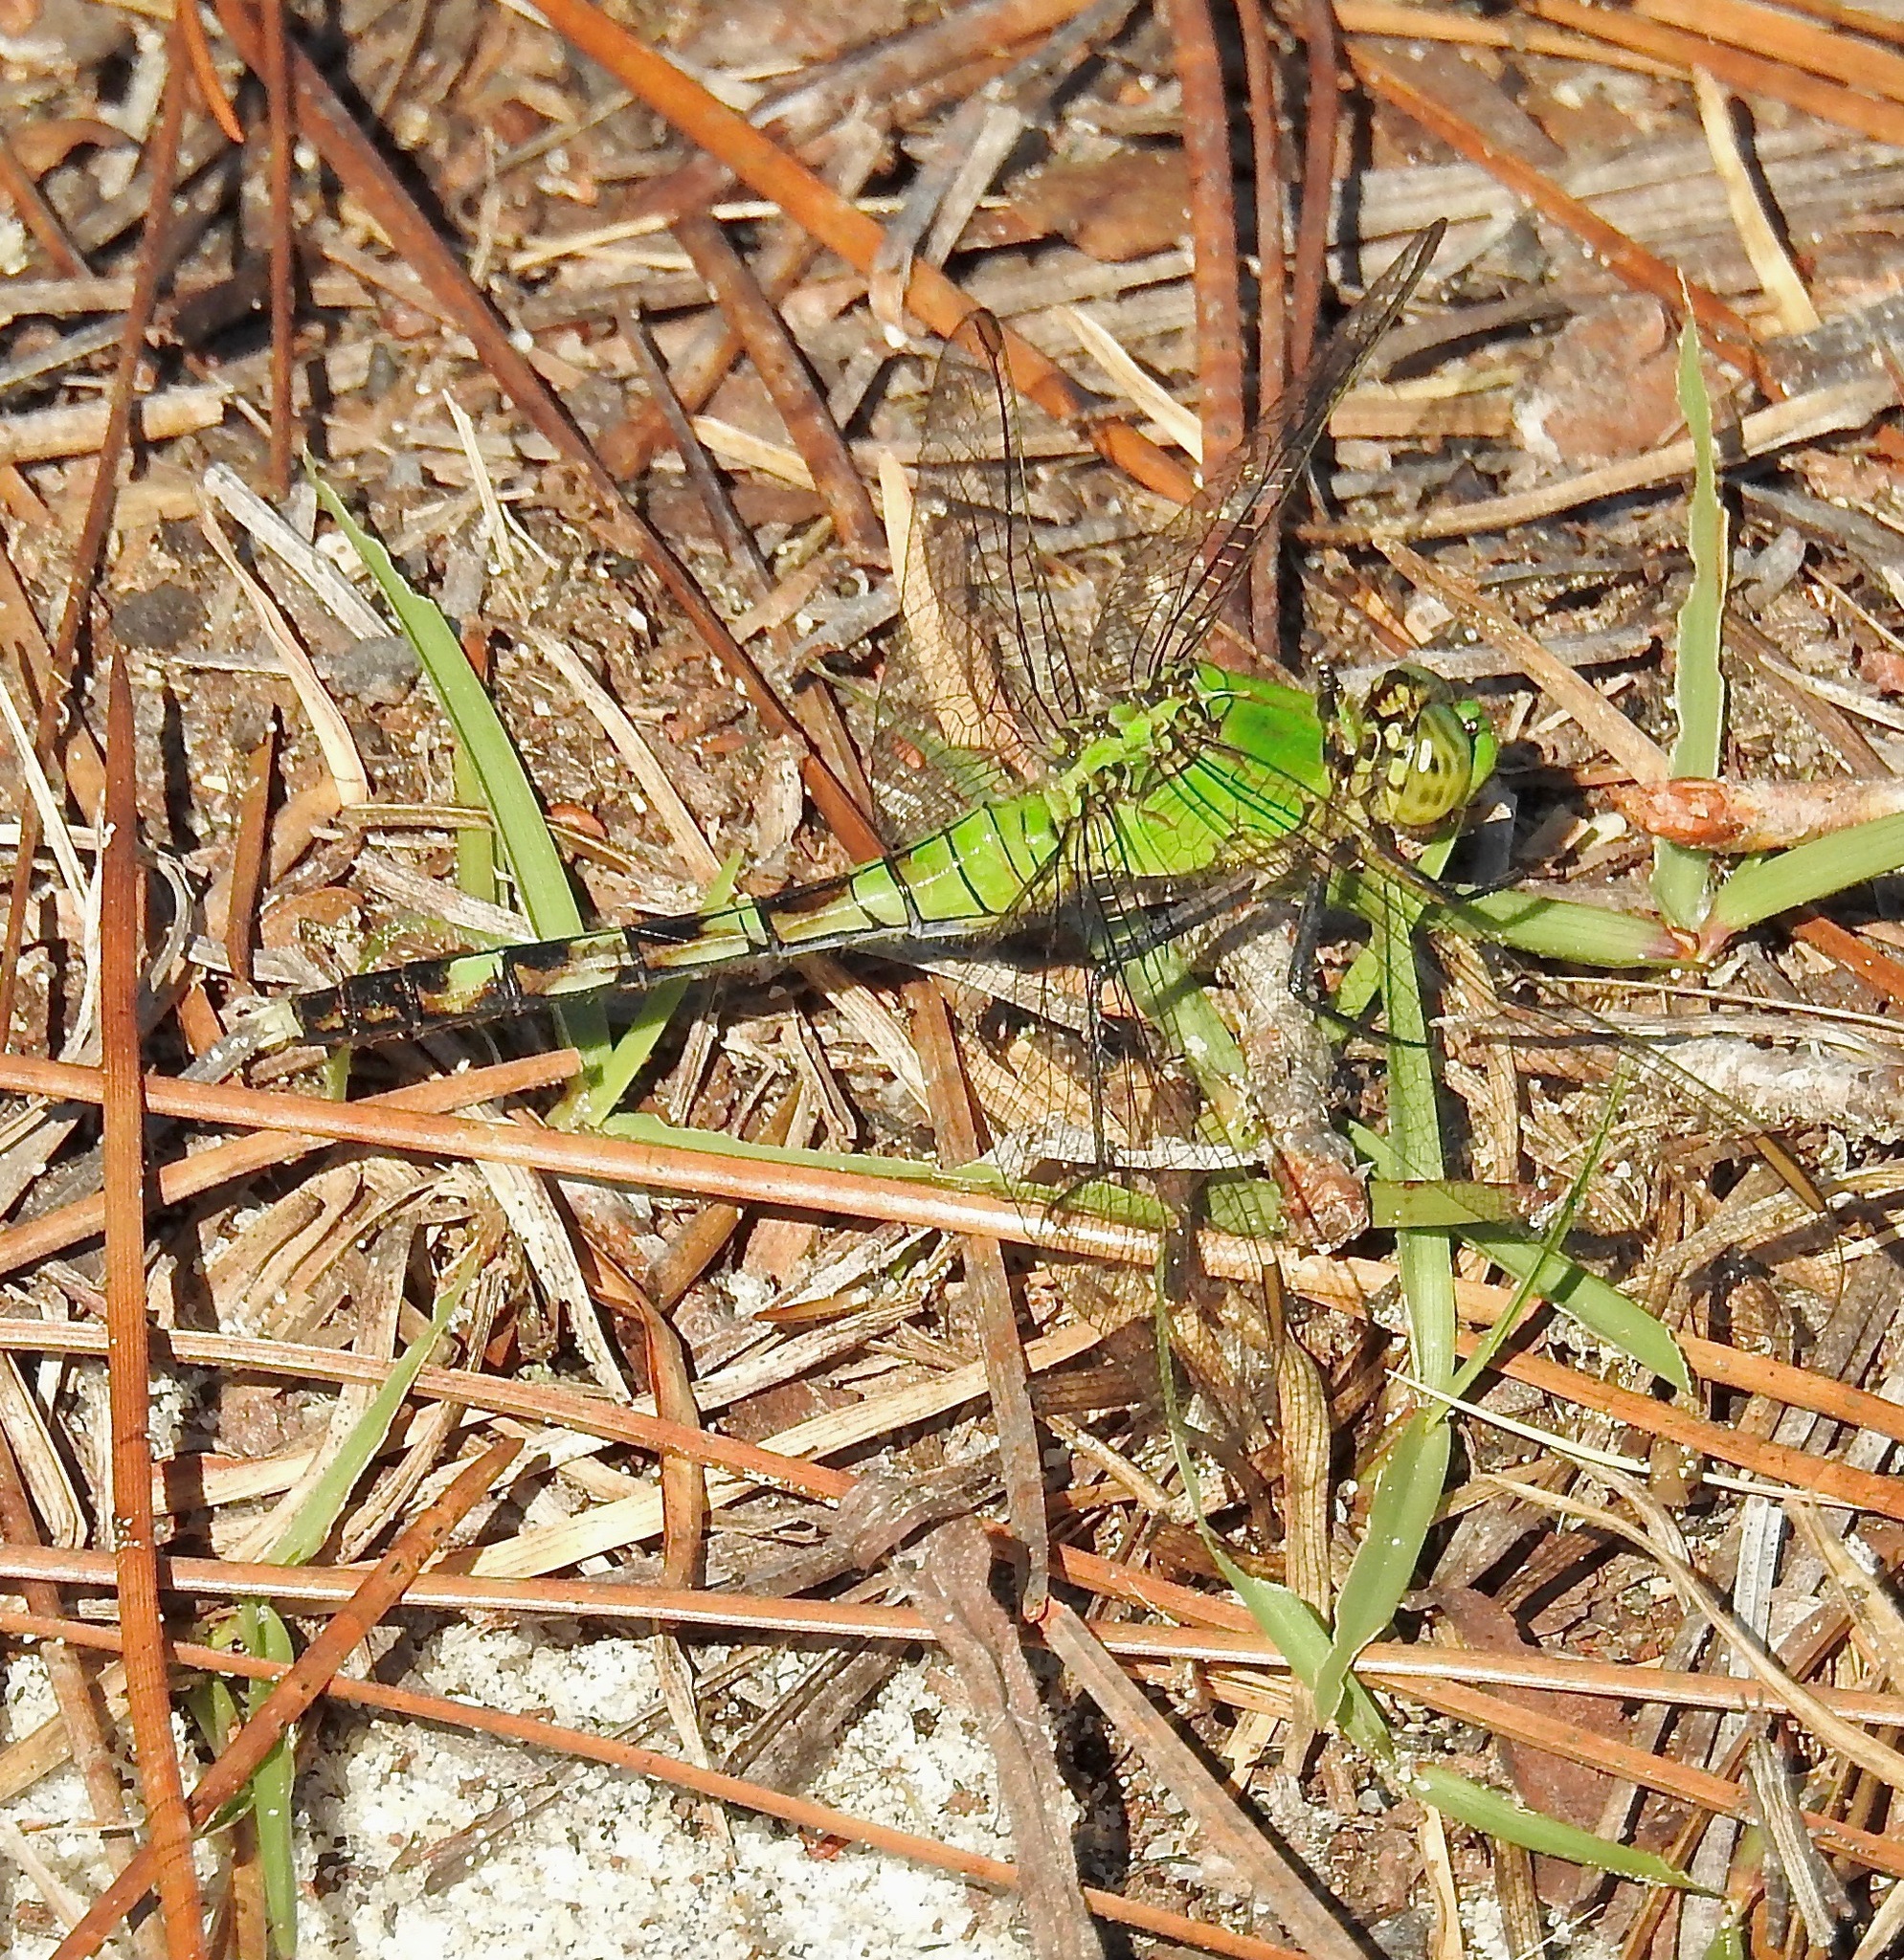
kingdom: Animalia
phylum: Arthropoda
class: Insecta
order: Odonata
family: Libellulidae
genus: Erythemis
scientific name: Erythemis simplicicollis
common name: Eastern pondhawk
